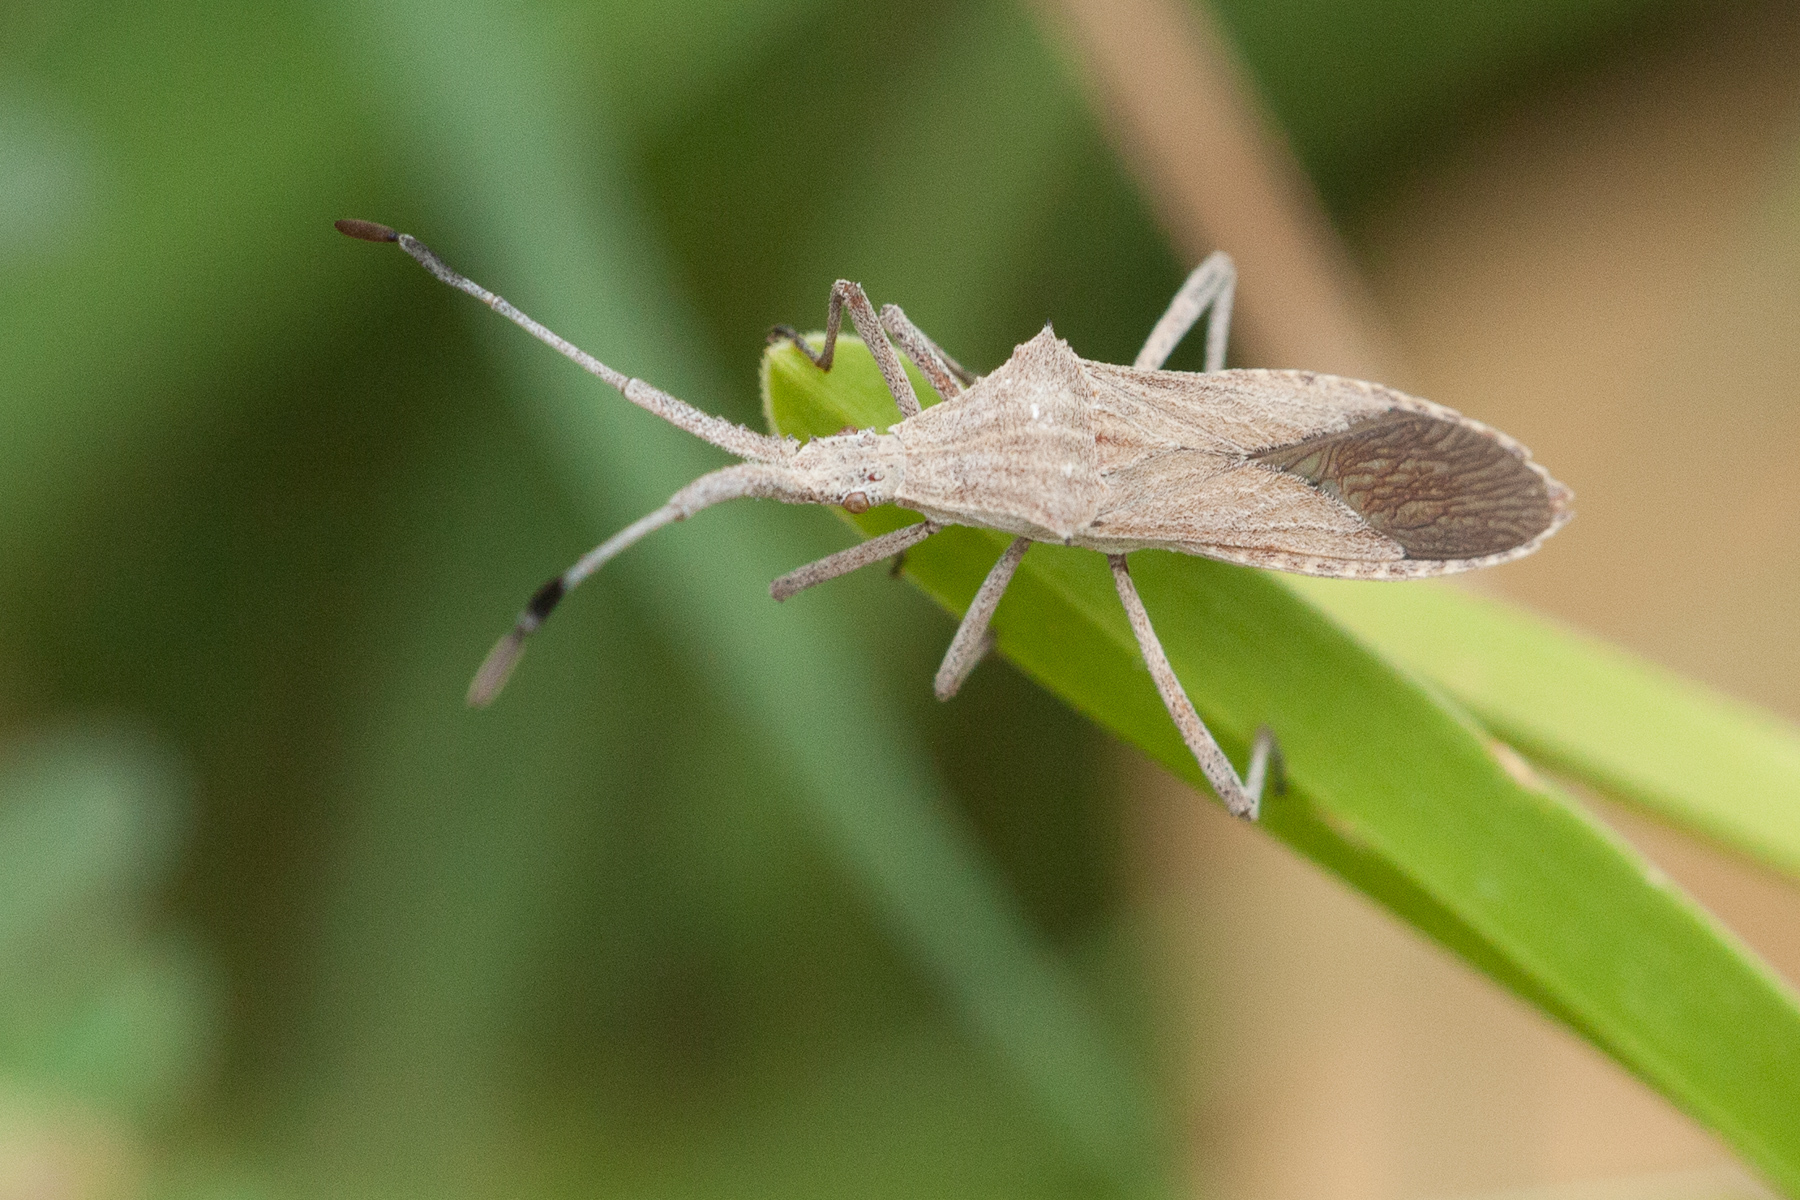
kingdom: Animalia
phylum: Arthropoda
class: Insecta
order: Hemiptera
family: Coreidae
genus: Chariesterus
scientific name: Chariesterus antennator
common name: Flat horned coreid
